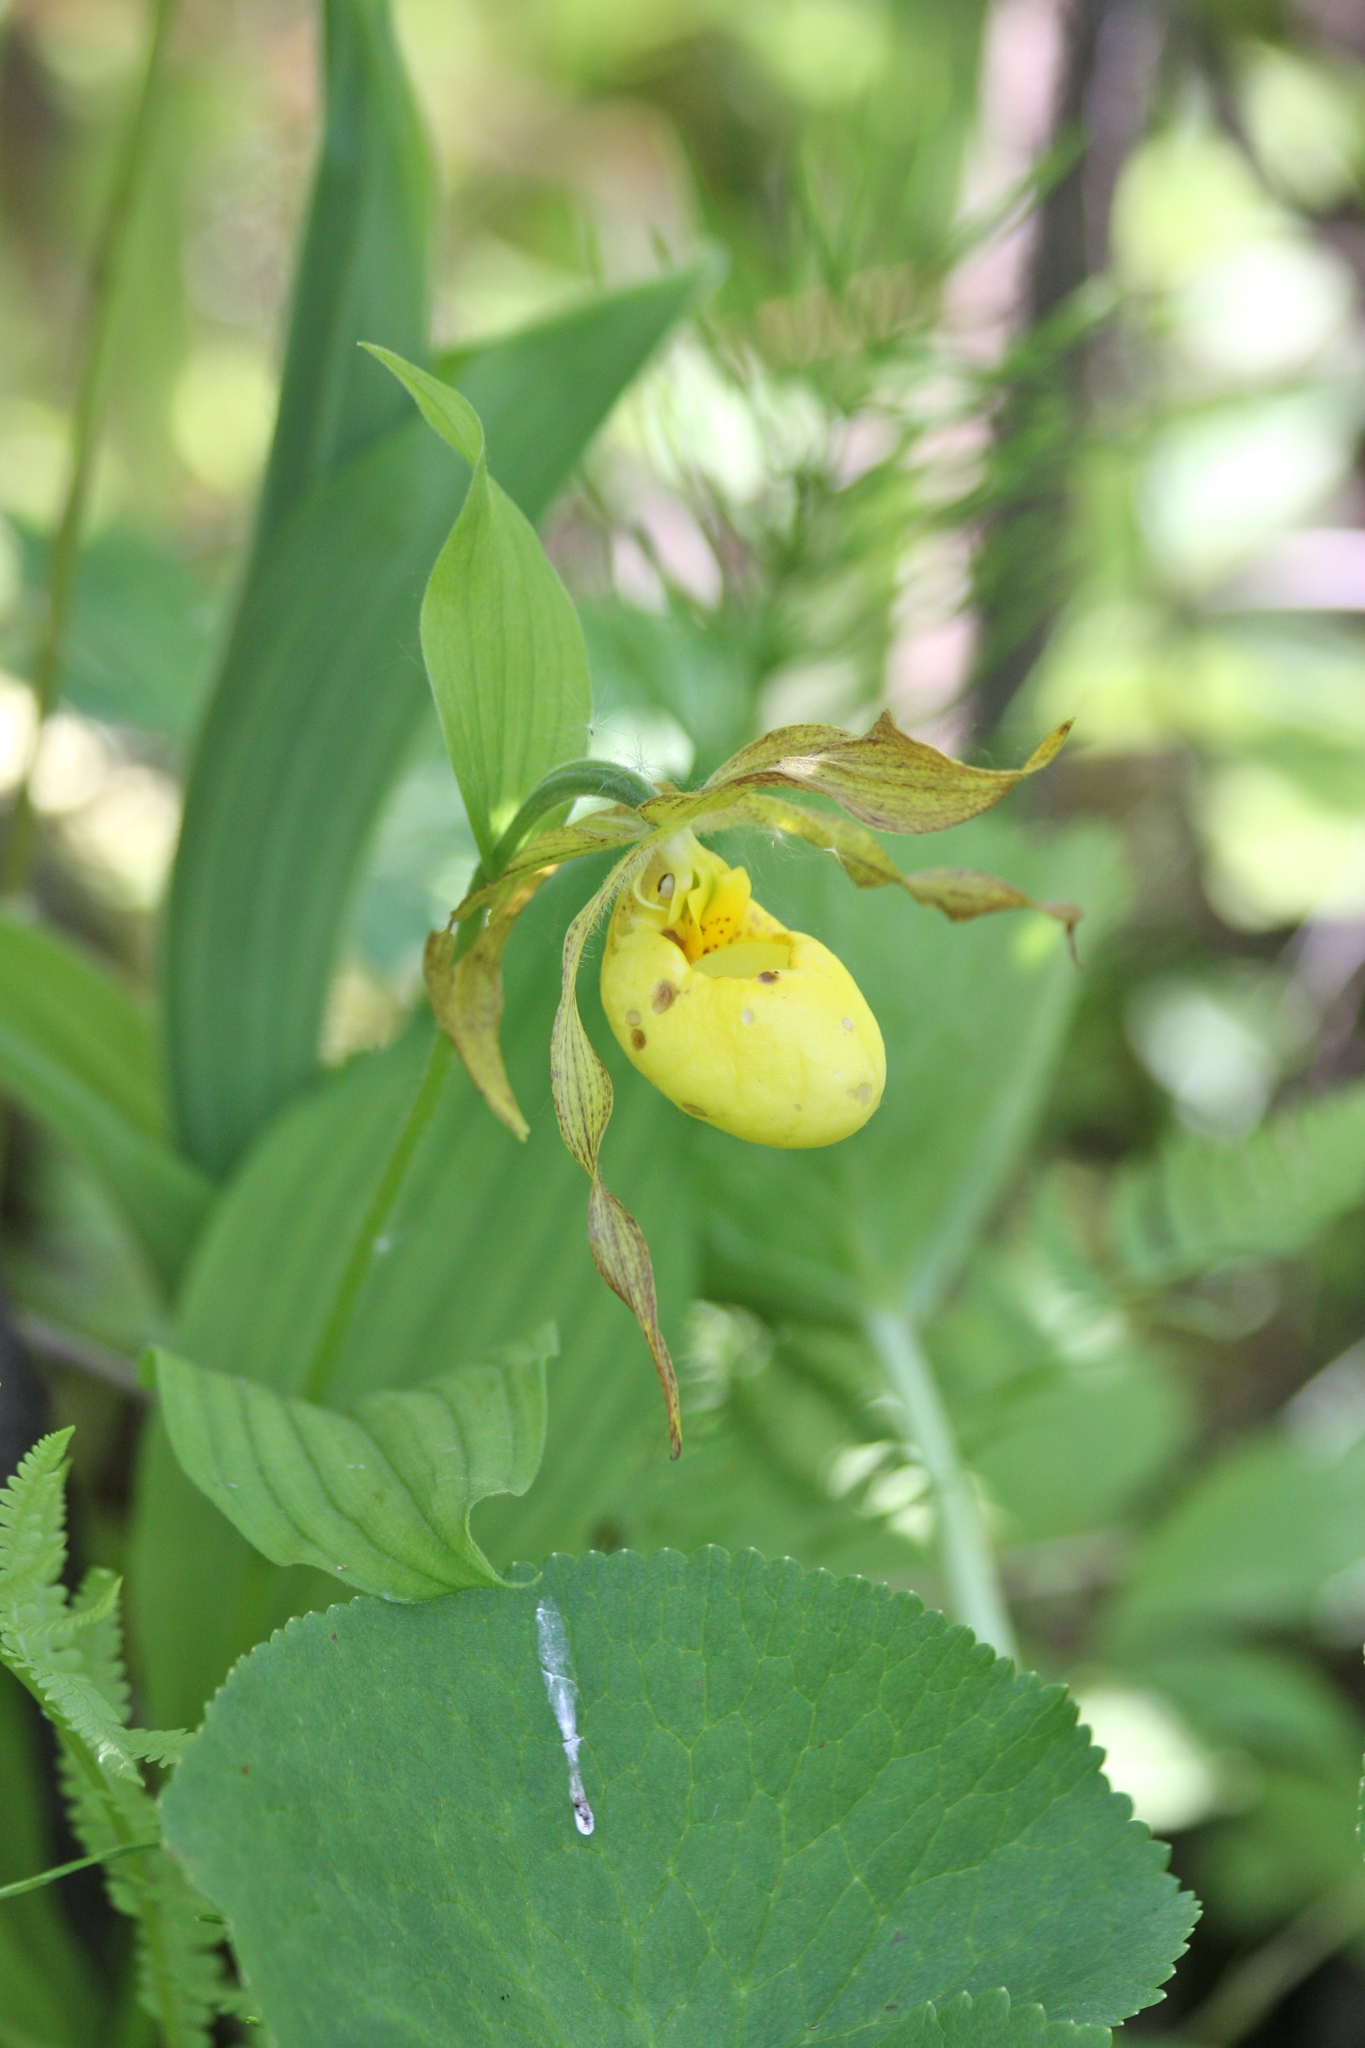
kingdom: Plantae
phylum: Tracheophyta
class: Liliopsida
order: Asparagales
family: Orchidaceae
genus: Cypripedium
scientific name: Cypripedium parviflorum
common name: American yellow lady's-slipper
